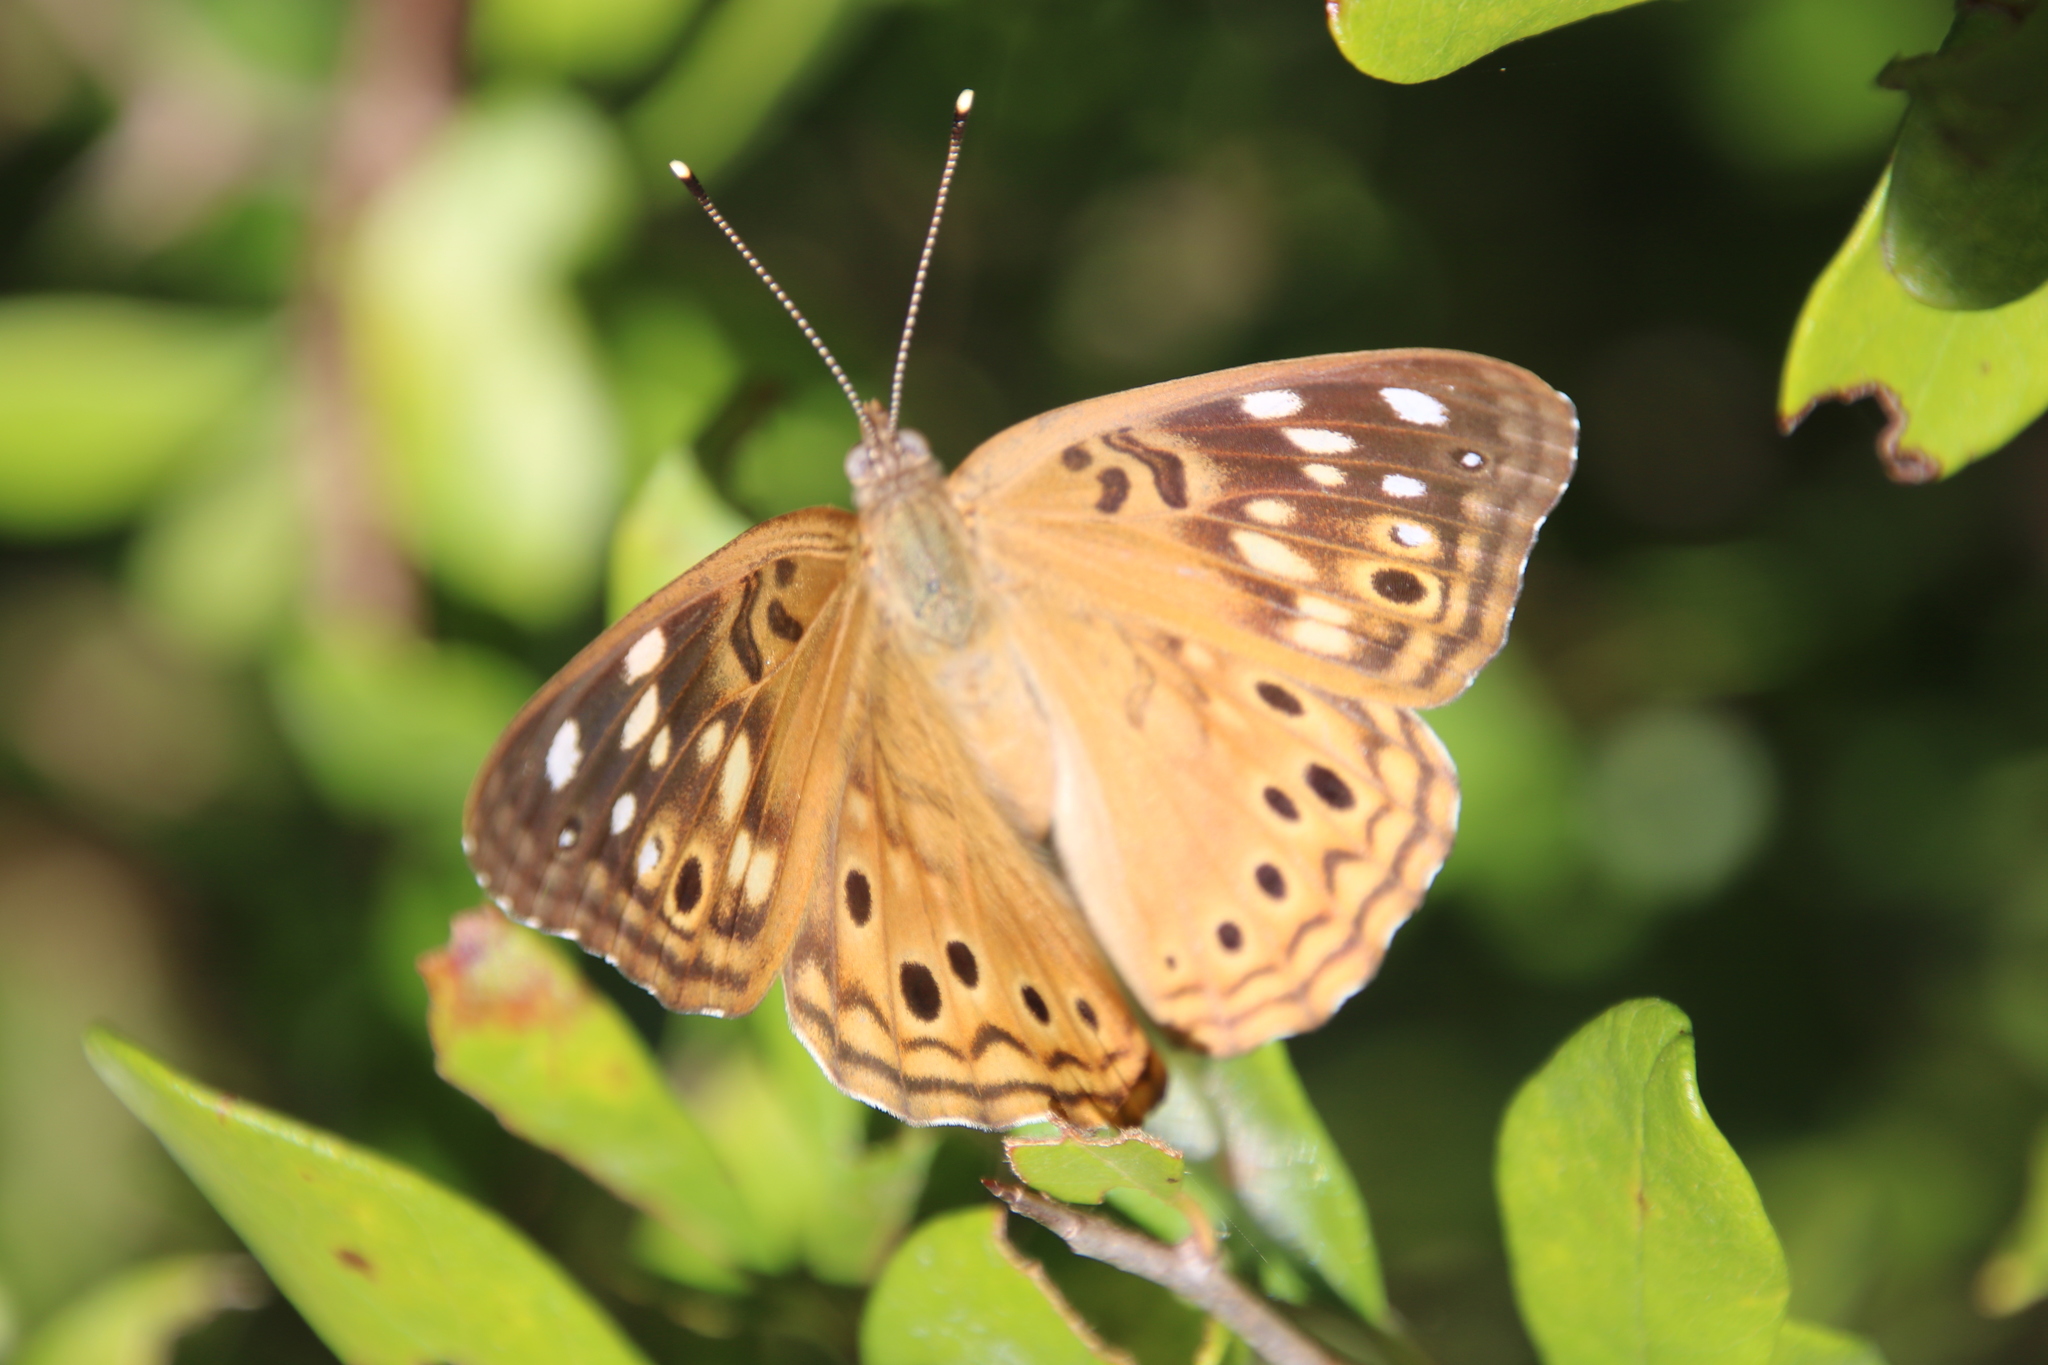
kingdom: Animalia
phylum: Arthropoda
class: Insecta
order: Lepidoptera
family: Nymphalidae
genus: Asterocampa
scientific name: Asterocampa celtis
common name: Hackberry emperor
